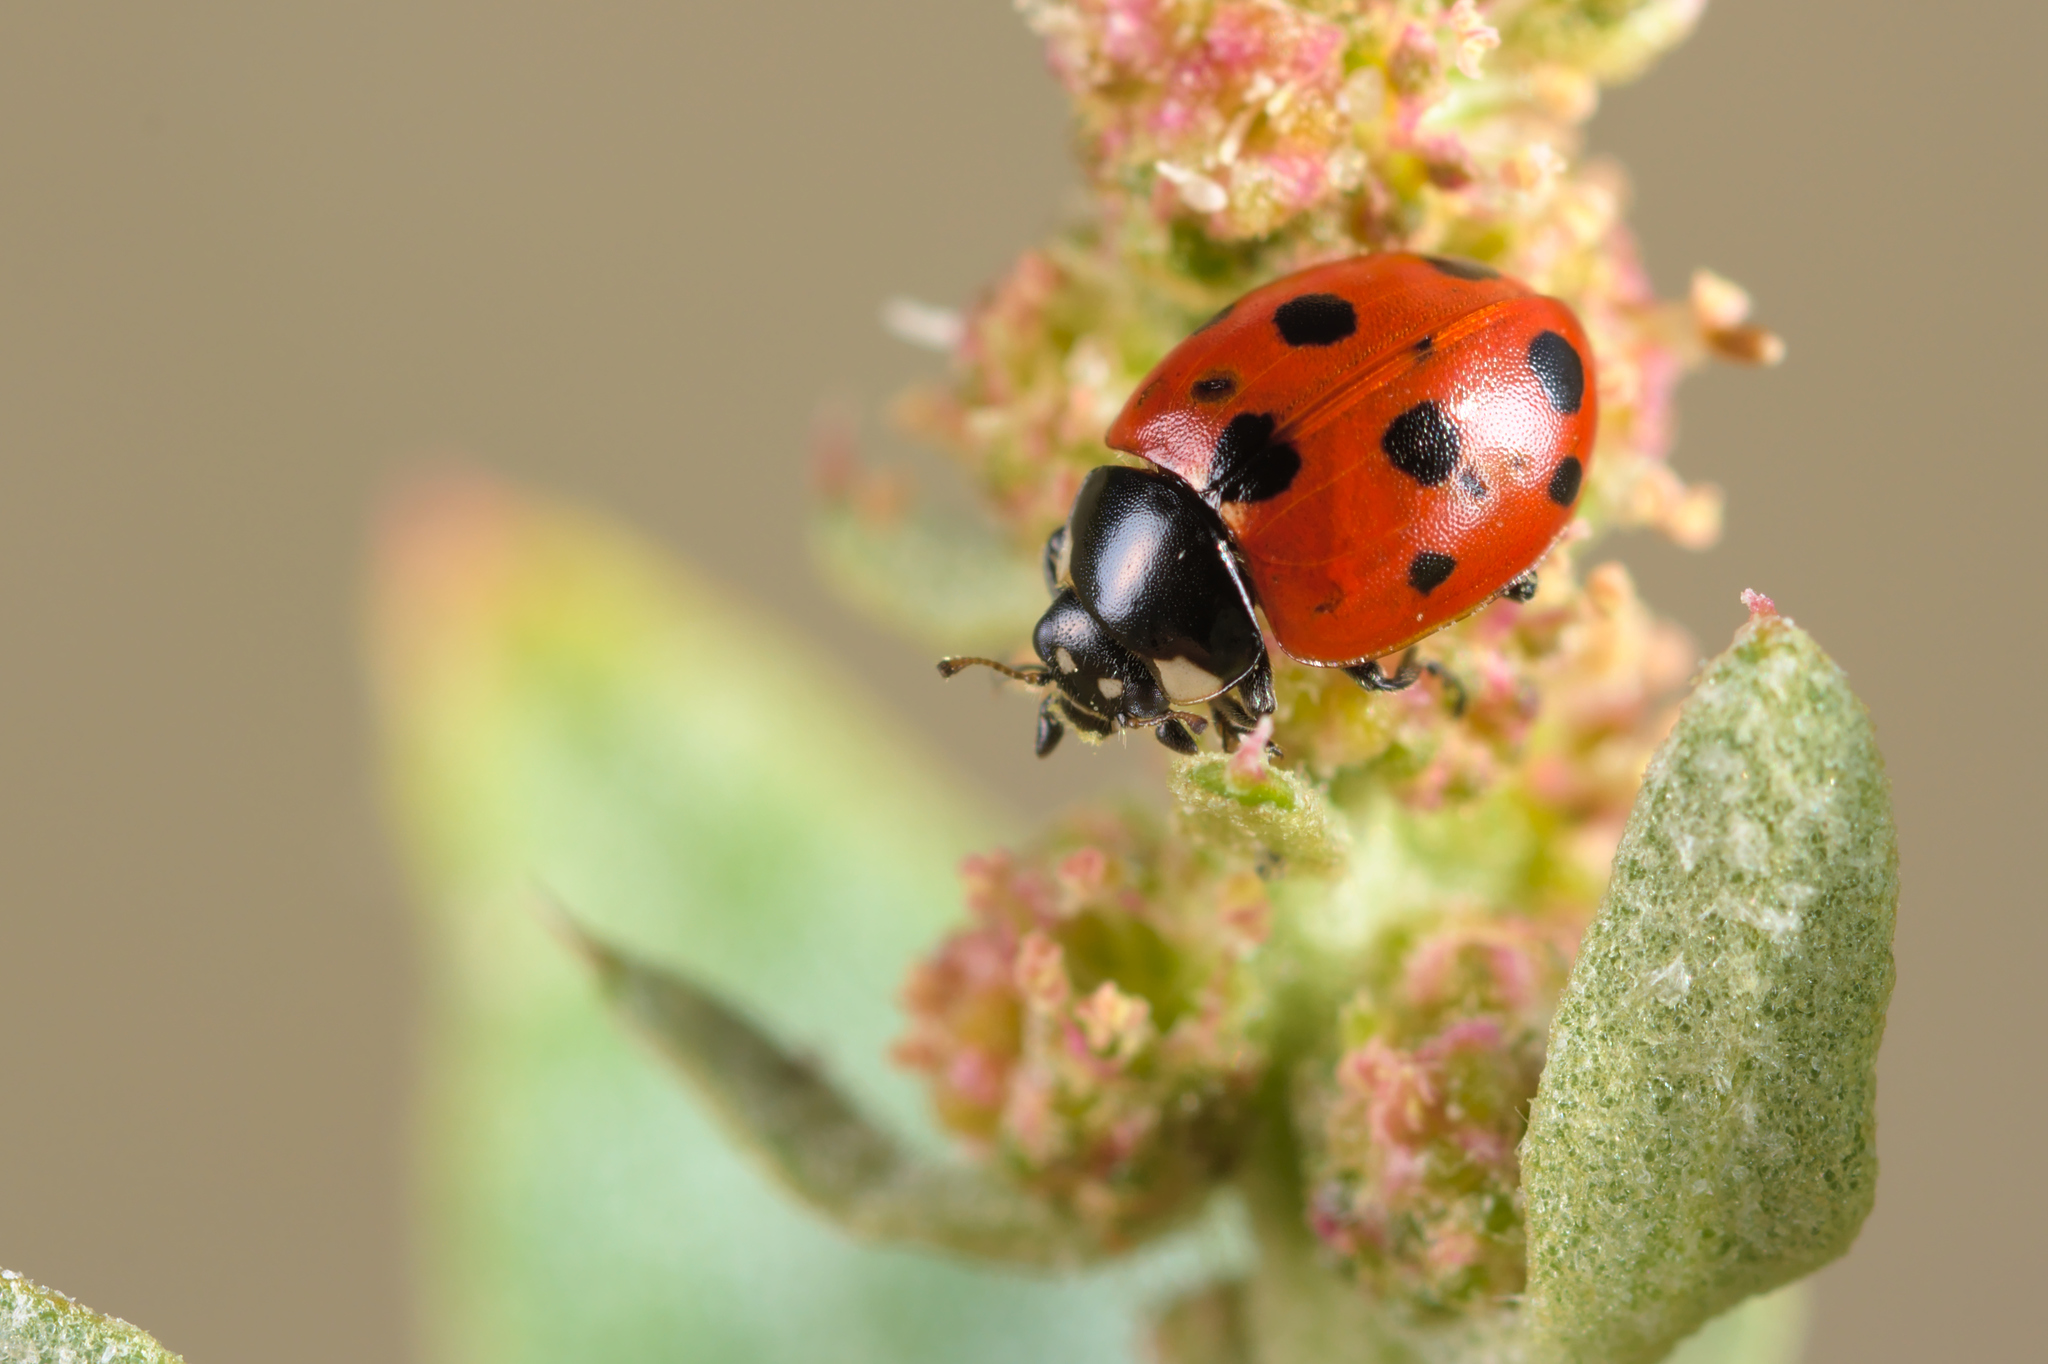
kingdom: Animalia
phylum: Arthropoda
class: Insecta
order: Coleoptera
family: Coccinellidae
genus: Coccinella
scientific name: Coccinella undecimpunctata
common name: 11-spot ladybird
